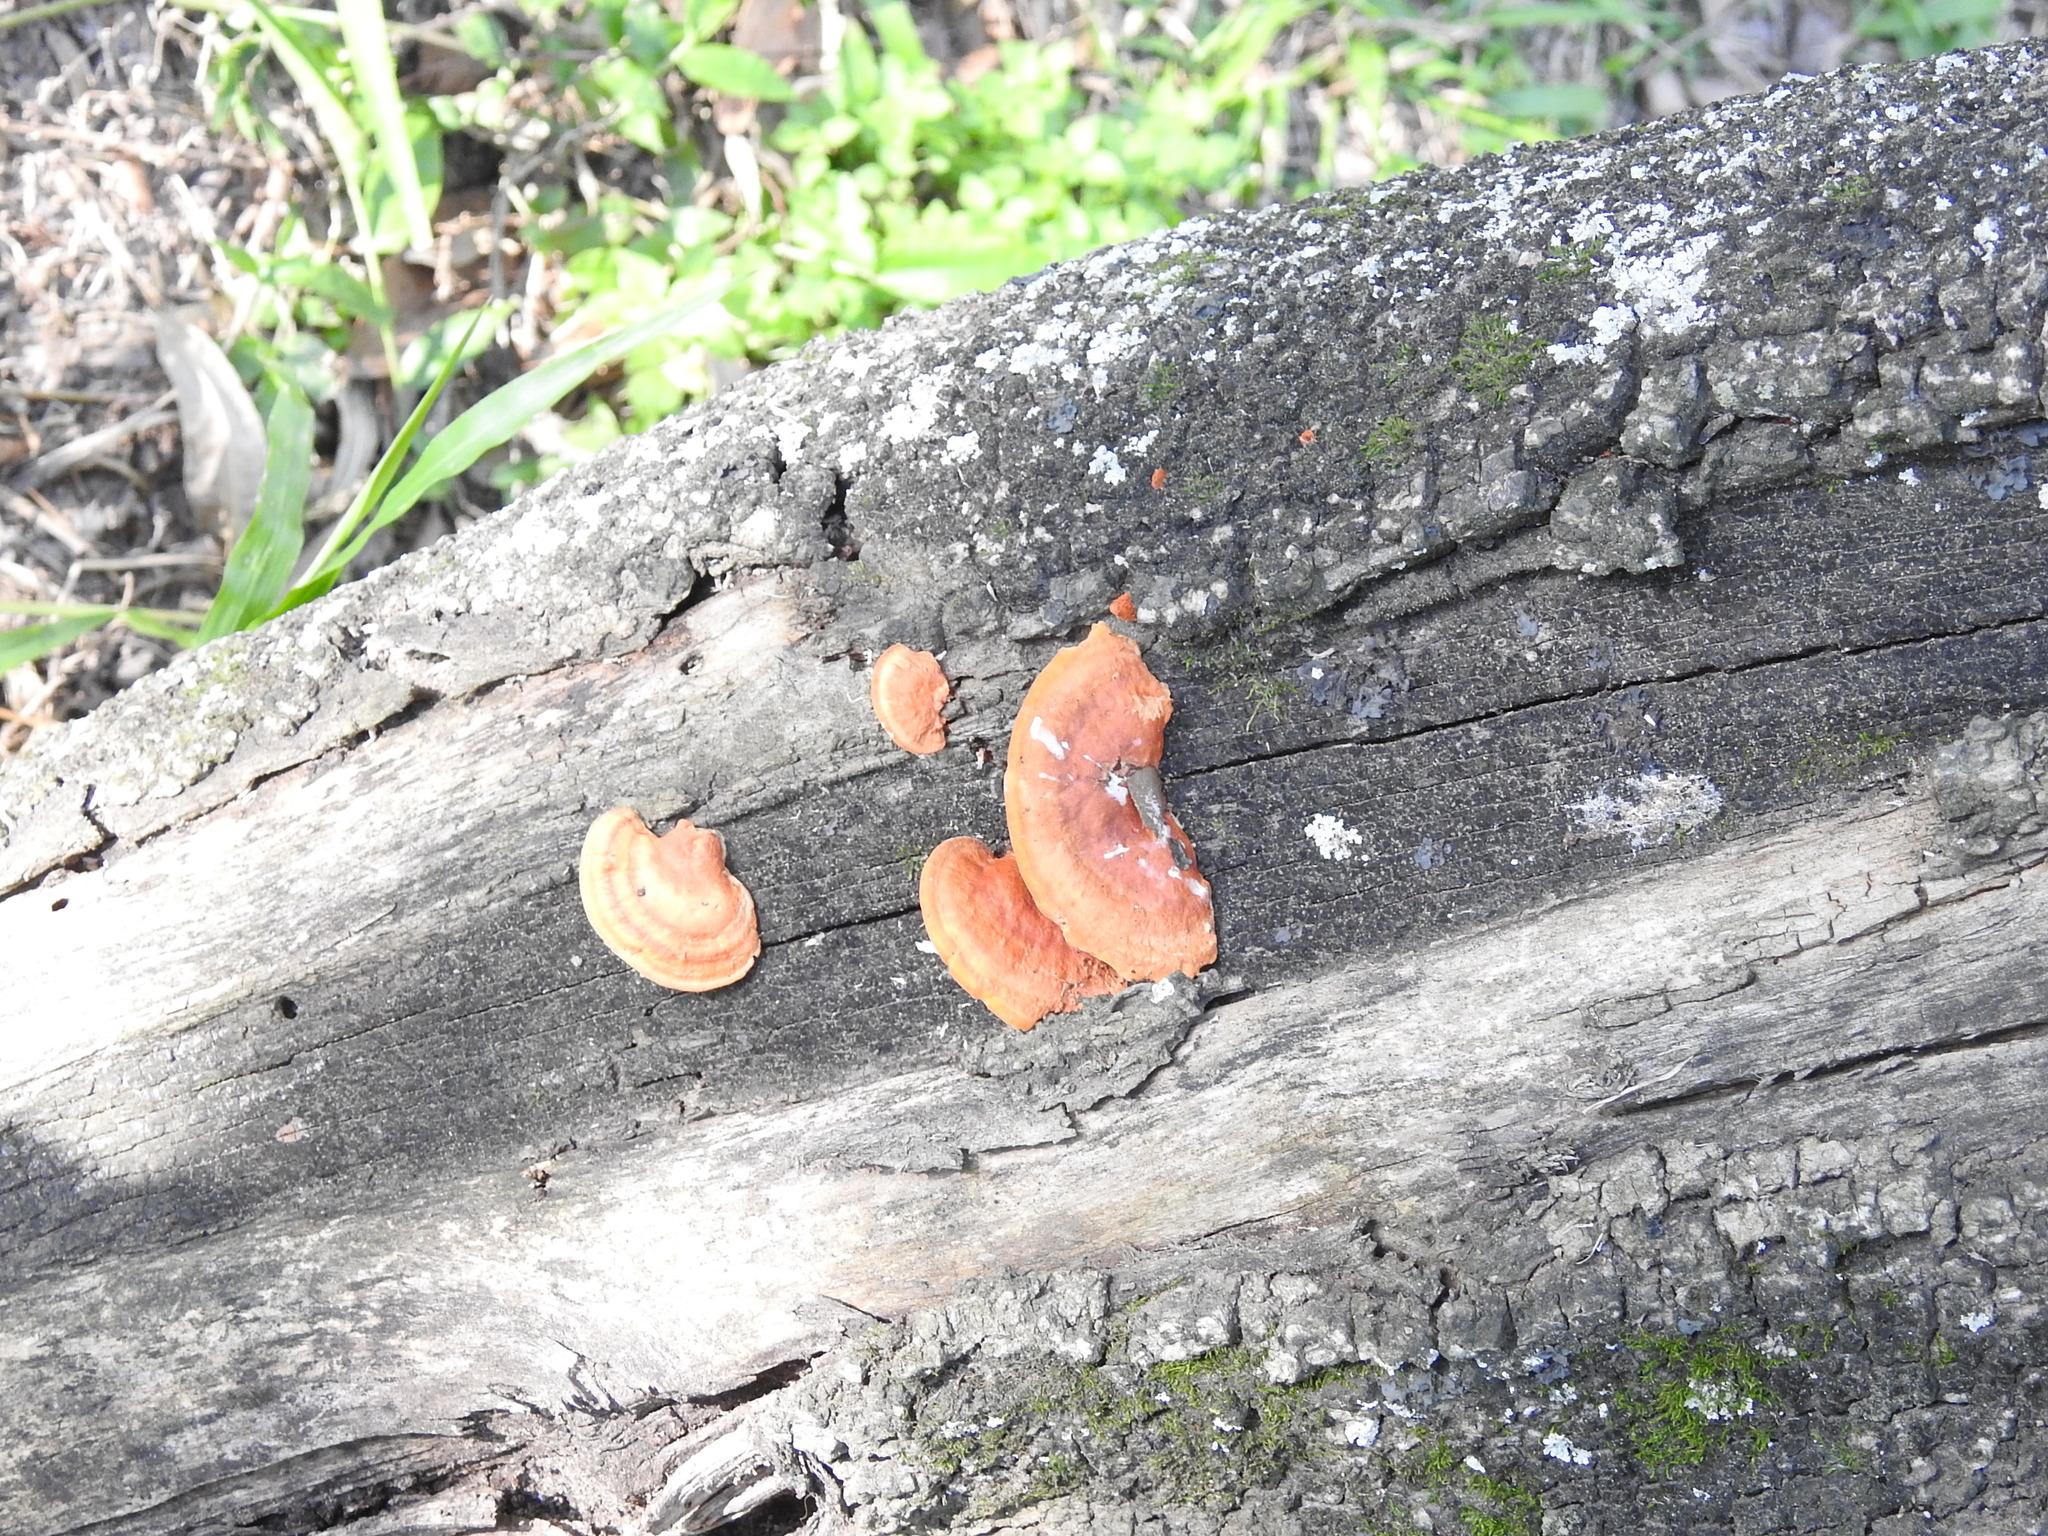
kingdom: Fungi
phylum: Basidiomycota
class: Agaricomycetes
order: Polyporales
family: Polyporaceae
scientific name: Polyporaceae
